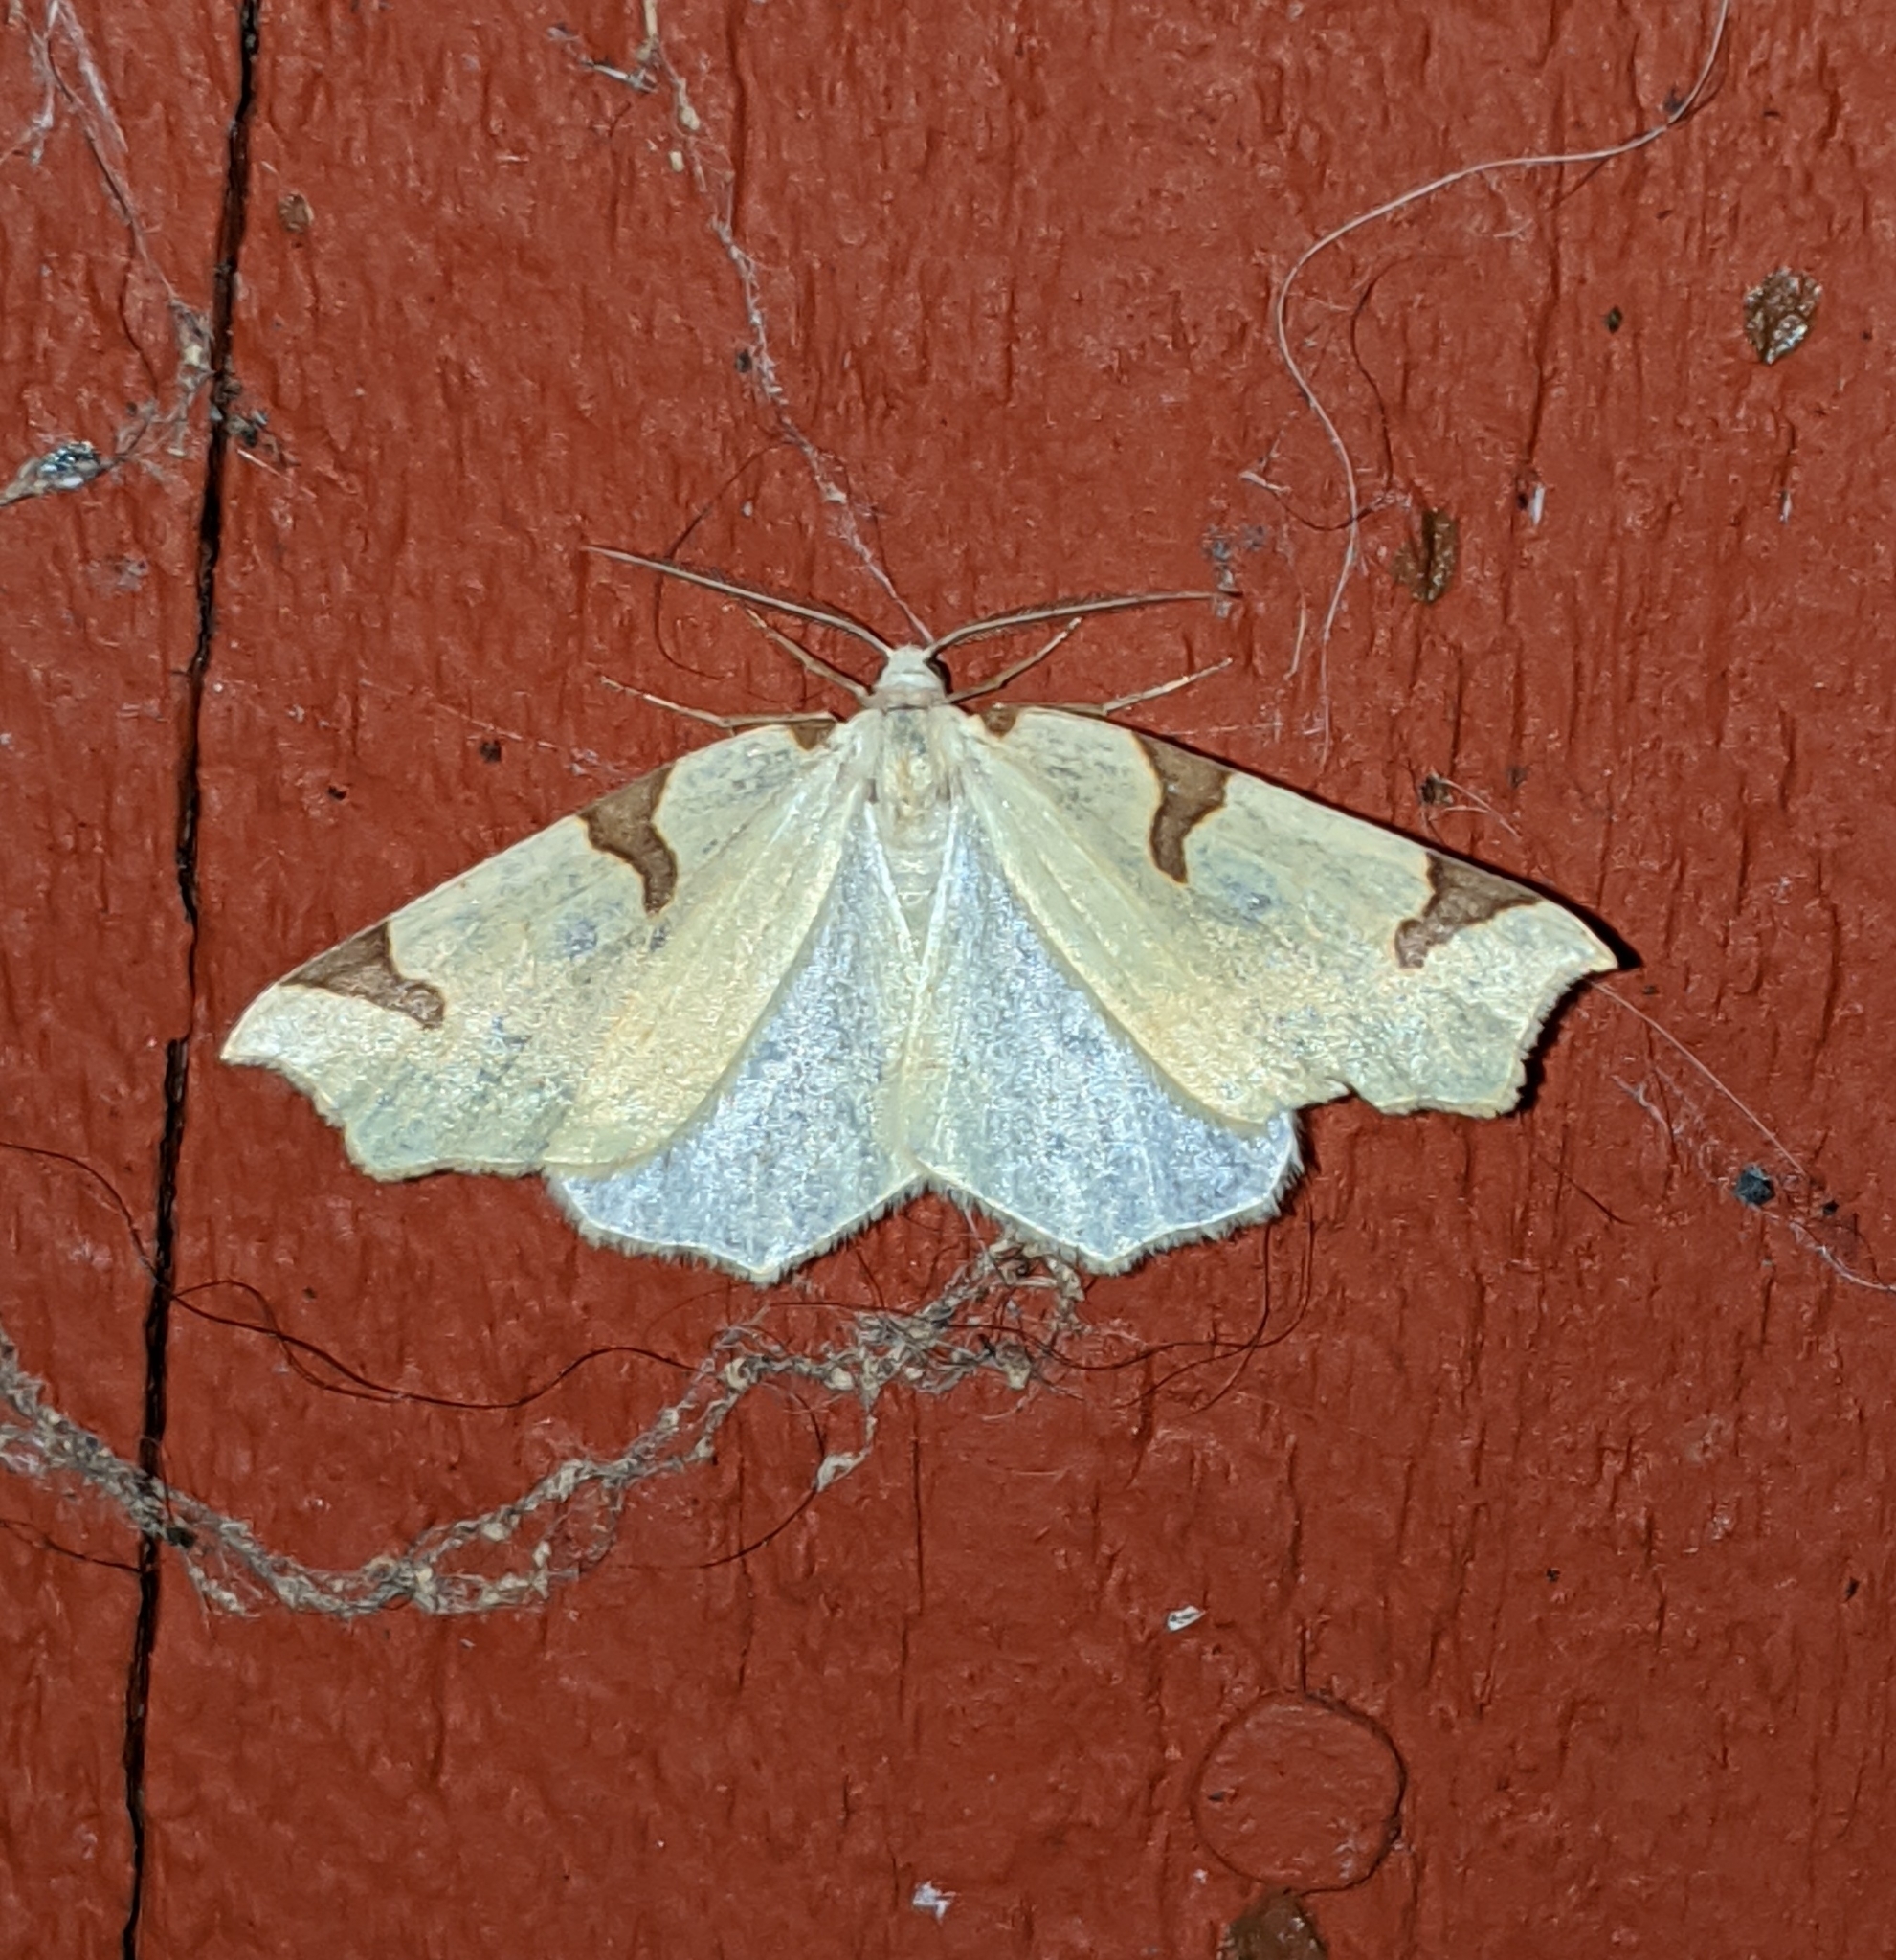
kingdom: Animalia
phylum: Arthropoda
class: Insecta
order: Lepidoptera
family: Geometridae
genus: Neoterpes
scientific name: Neoterpes trianguliferata
